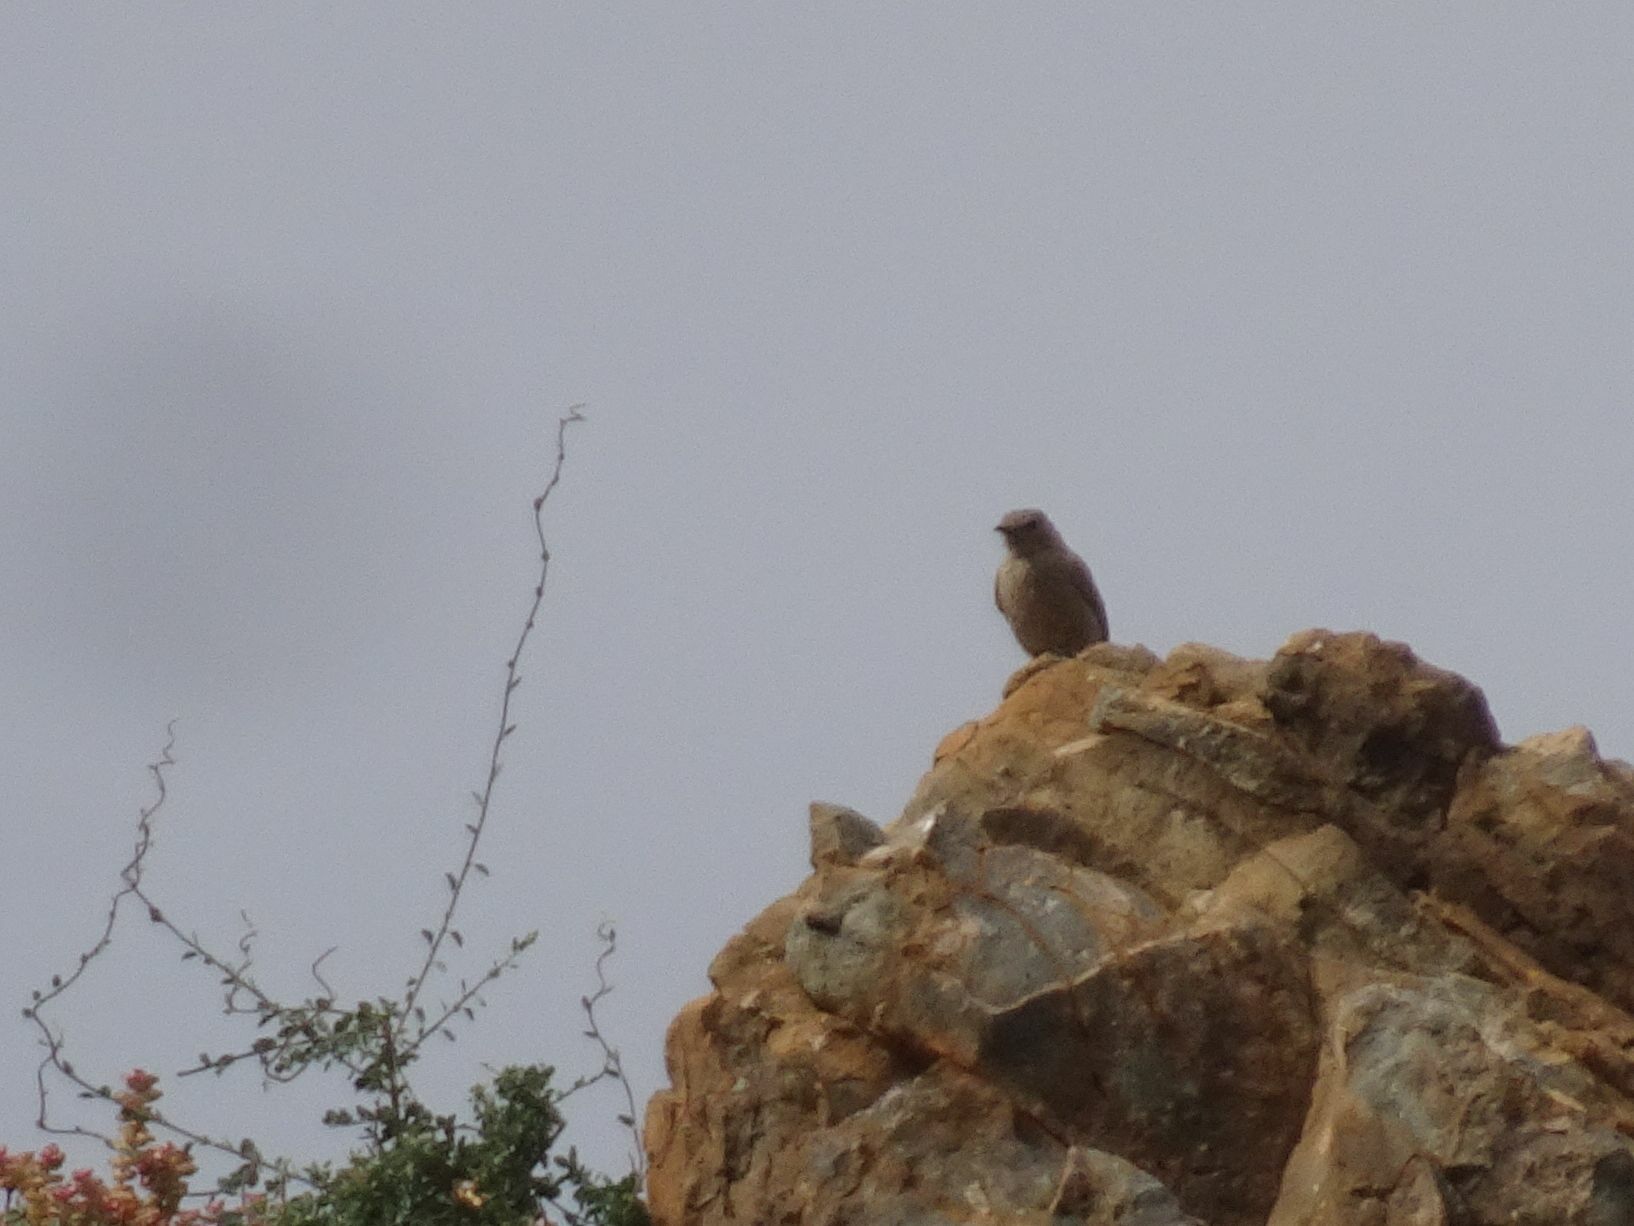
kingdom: Animalia
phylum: Chordata
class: Aves
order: Passeriformes
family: Muscicapidae
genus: Oenanthe
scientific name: Oenanthe familiaris
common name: Familiar chat
